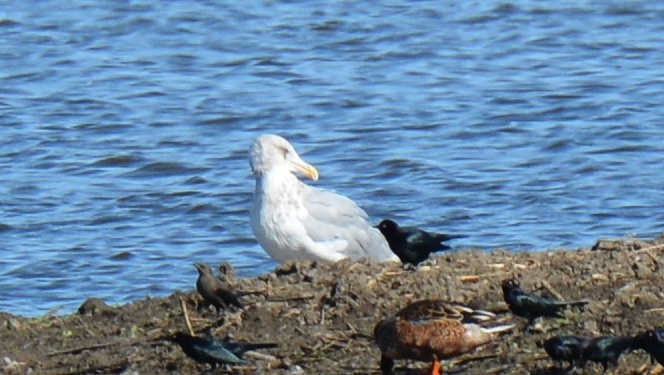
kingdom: Animalia
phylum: Chordata
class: Aves
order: Charadriiformes
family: Laridae
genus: Larus
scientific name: Larus
